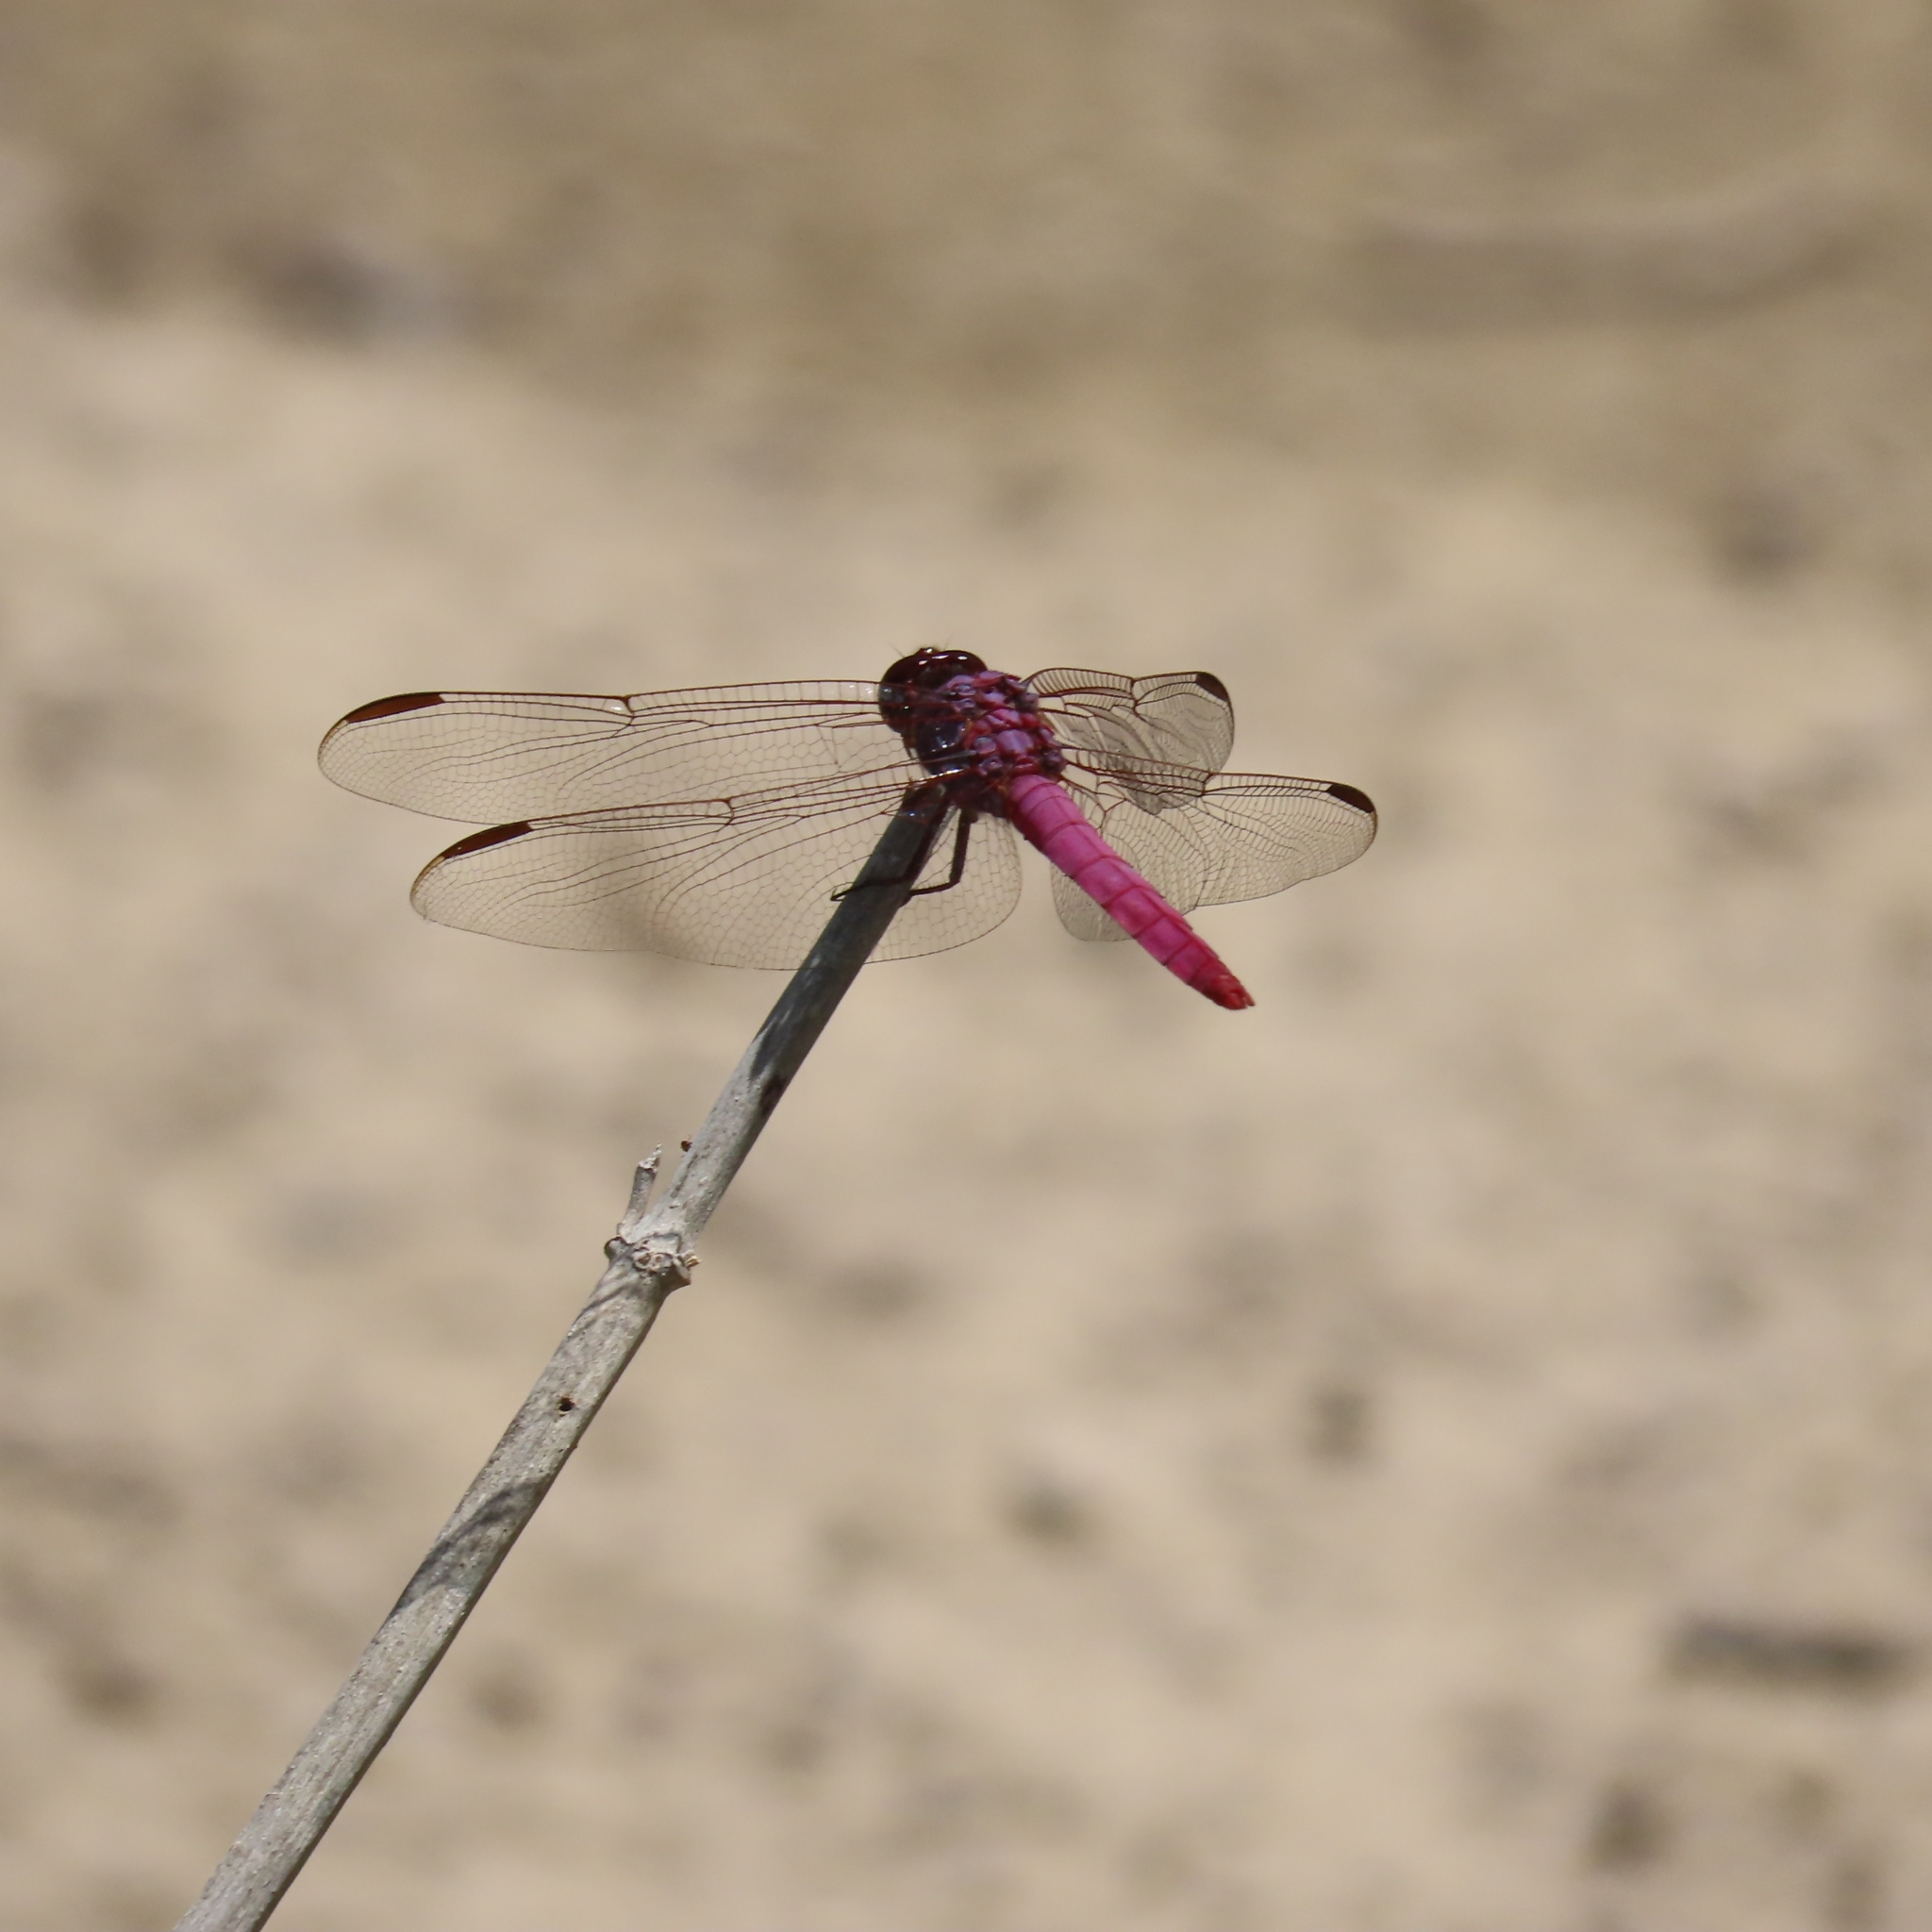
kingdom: Animalia
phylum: Arthropoda
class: Insecta
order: Odonata
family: Libellulidae
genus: Orthemis
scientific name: Orthemis ferruginea
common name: Roseate skimmer
